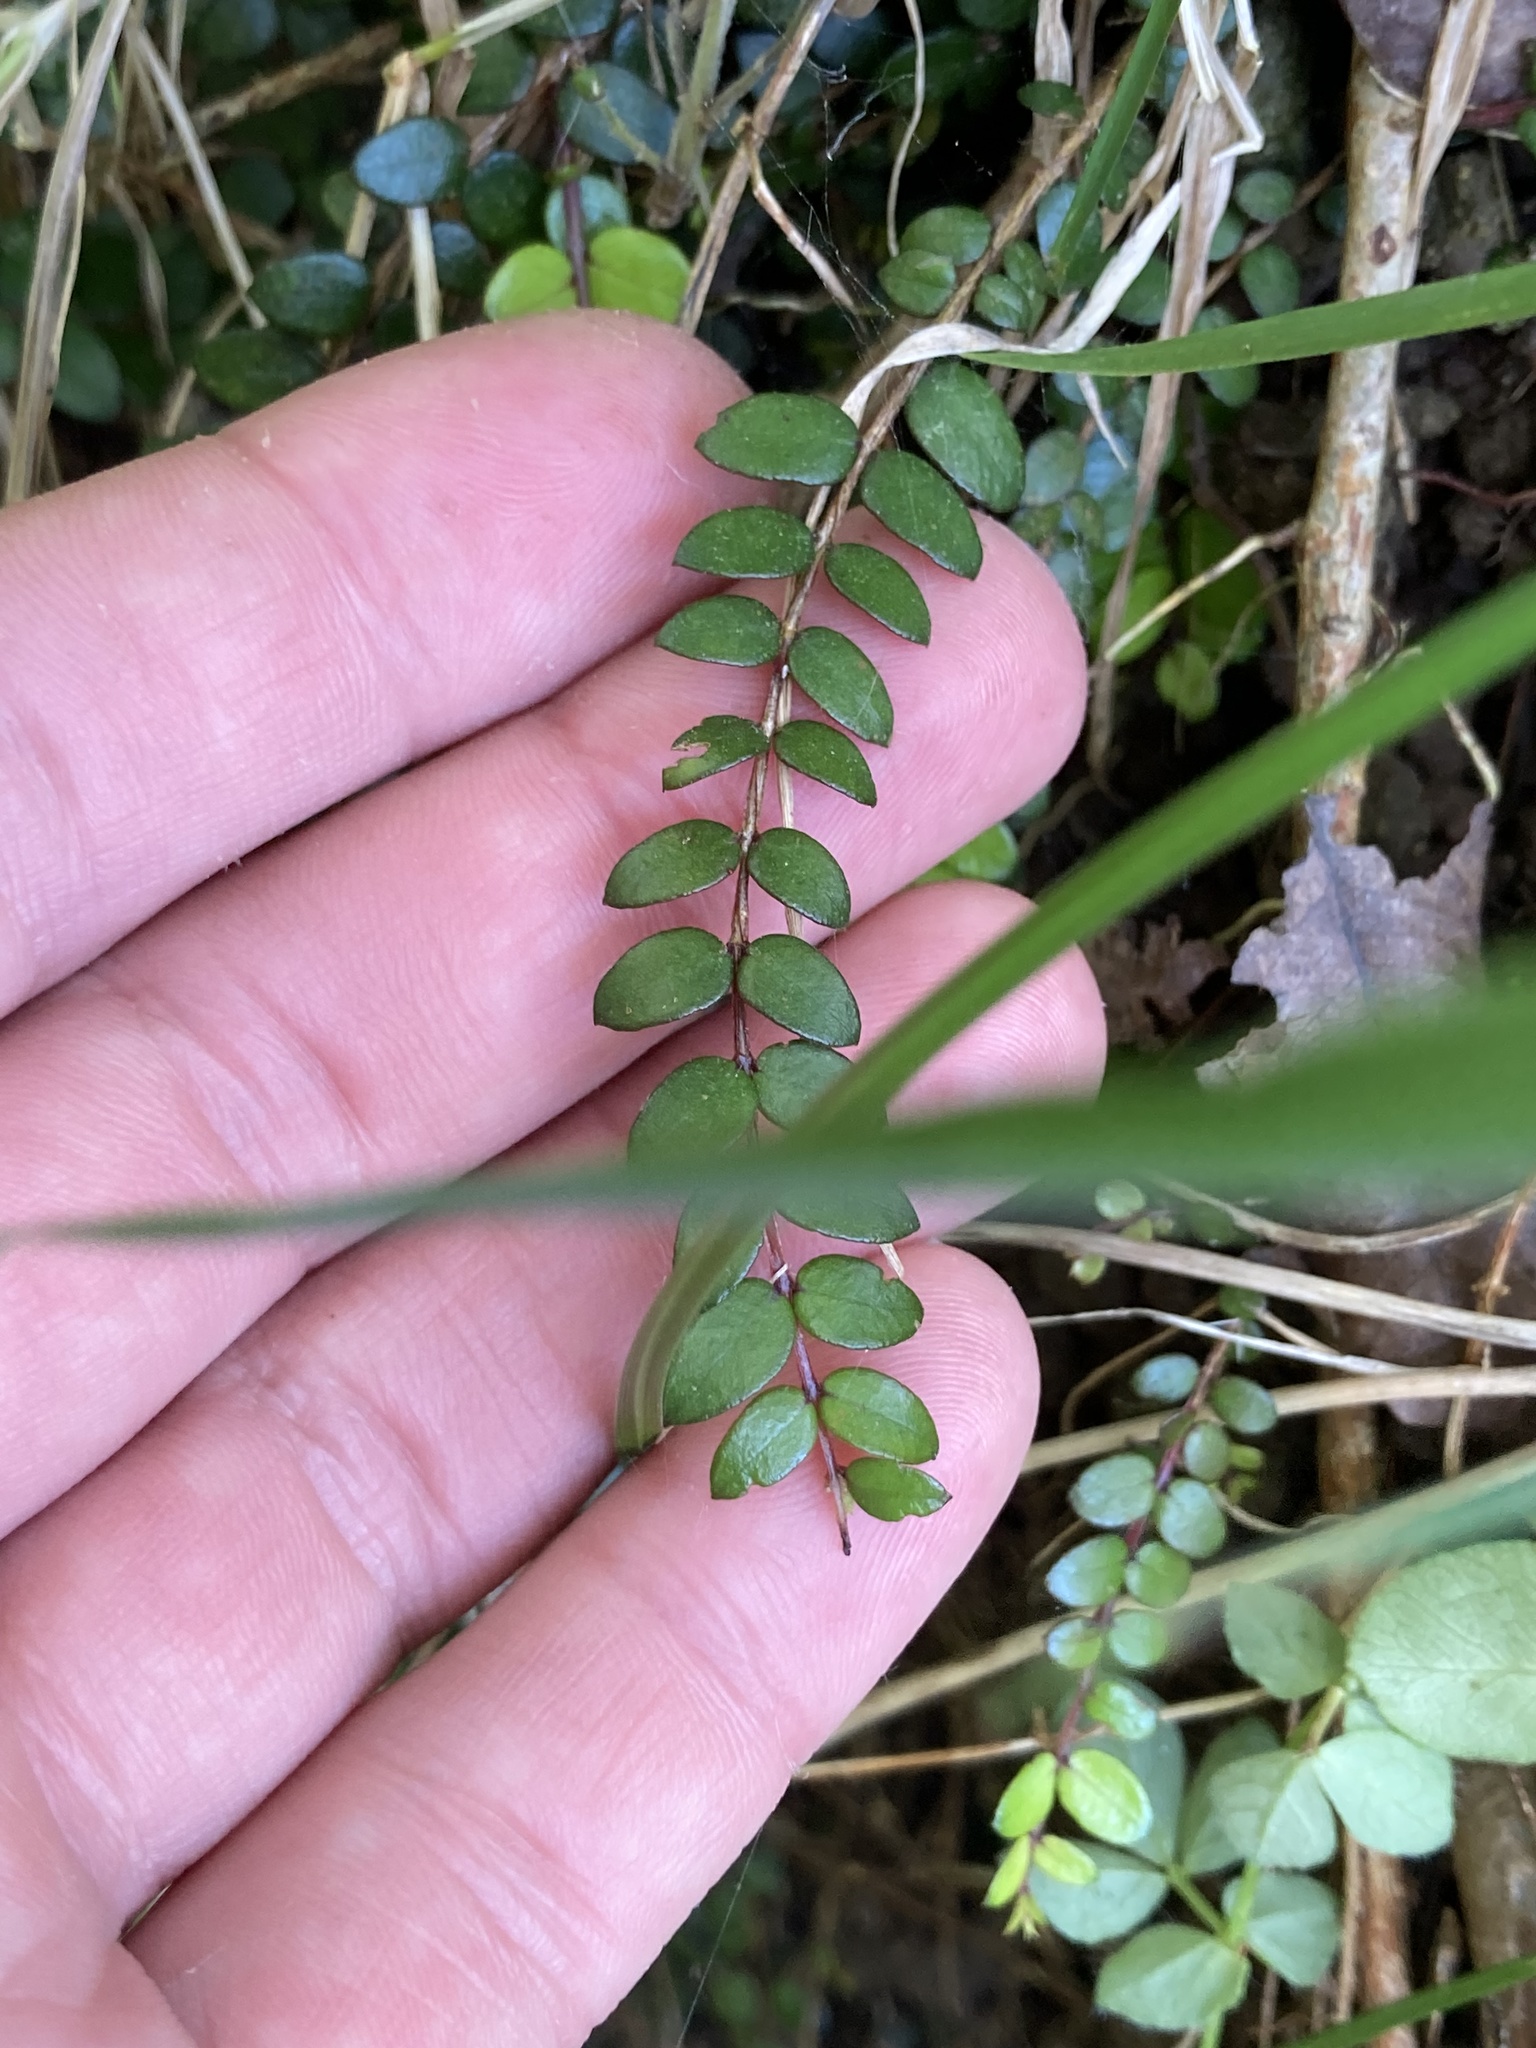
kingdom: Plantae
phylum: Tracheophyta
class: Magnoliopsida
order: Myrtales
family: Myrtaceae
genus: Metrosideros
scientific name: Metrosideros diffusa
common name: Small ratavine
